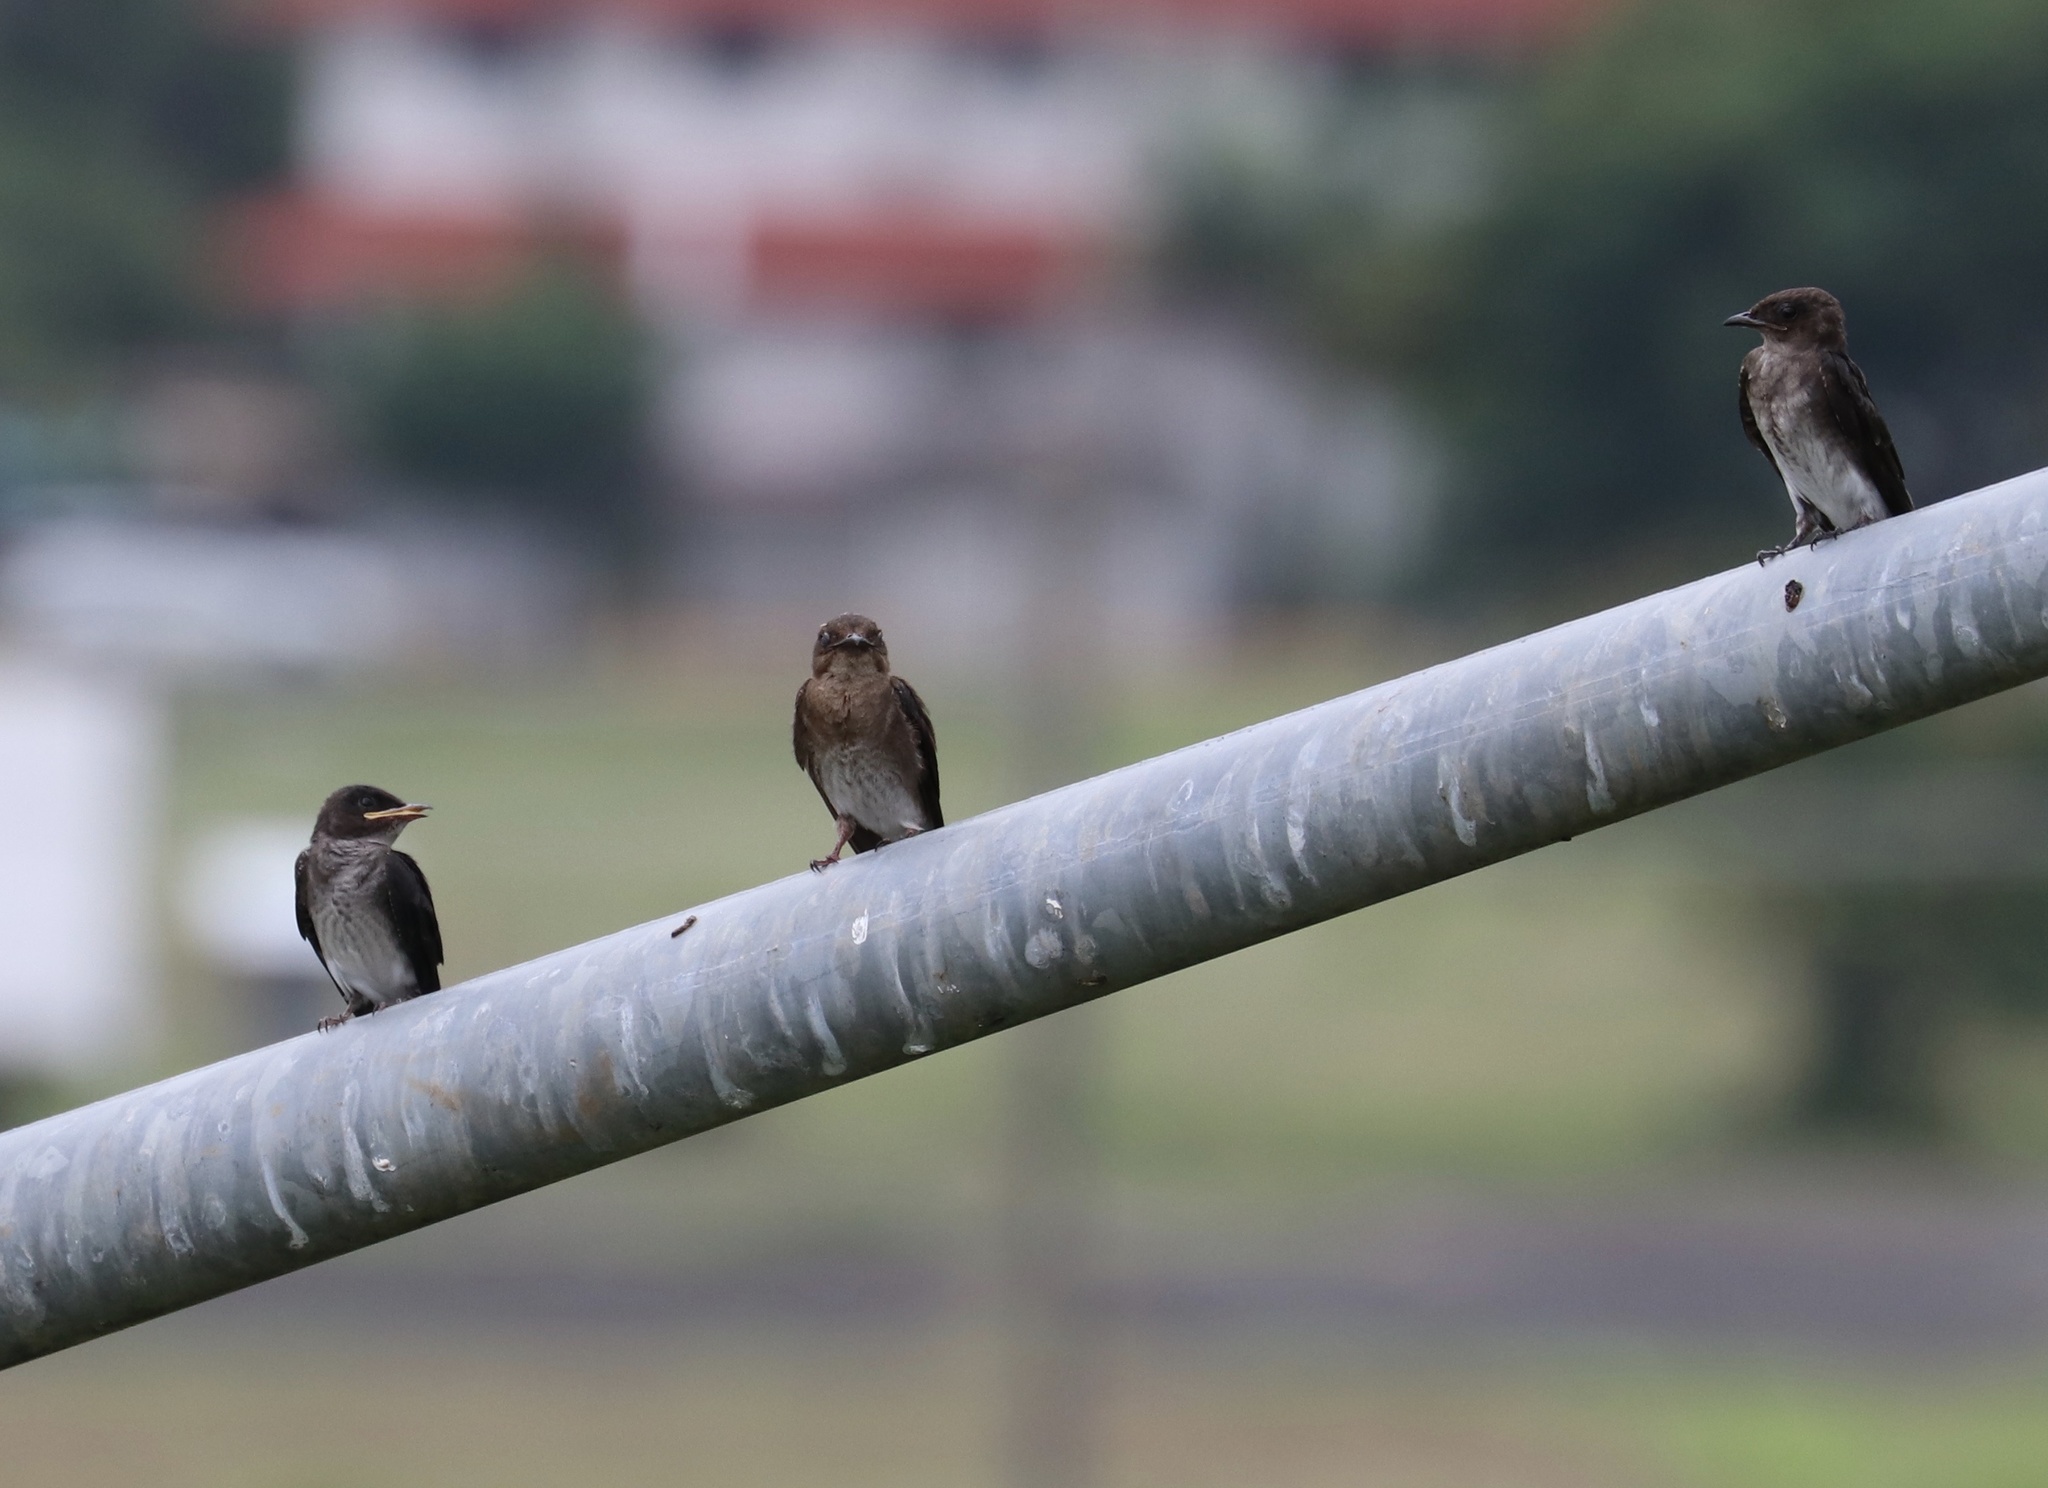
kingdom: Animalia
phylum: Chordata
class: Aves
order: Passeriformes
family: Hirundinidae
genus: Progne
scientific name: Progne chalybea
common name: Grey-breasted martin
